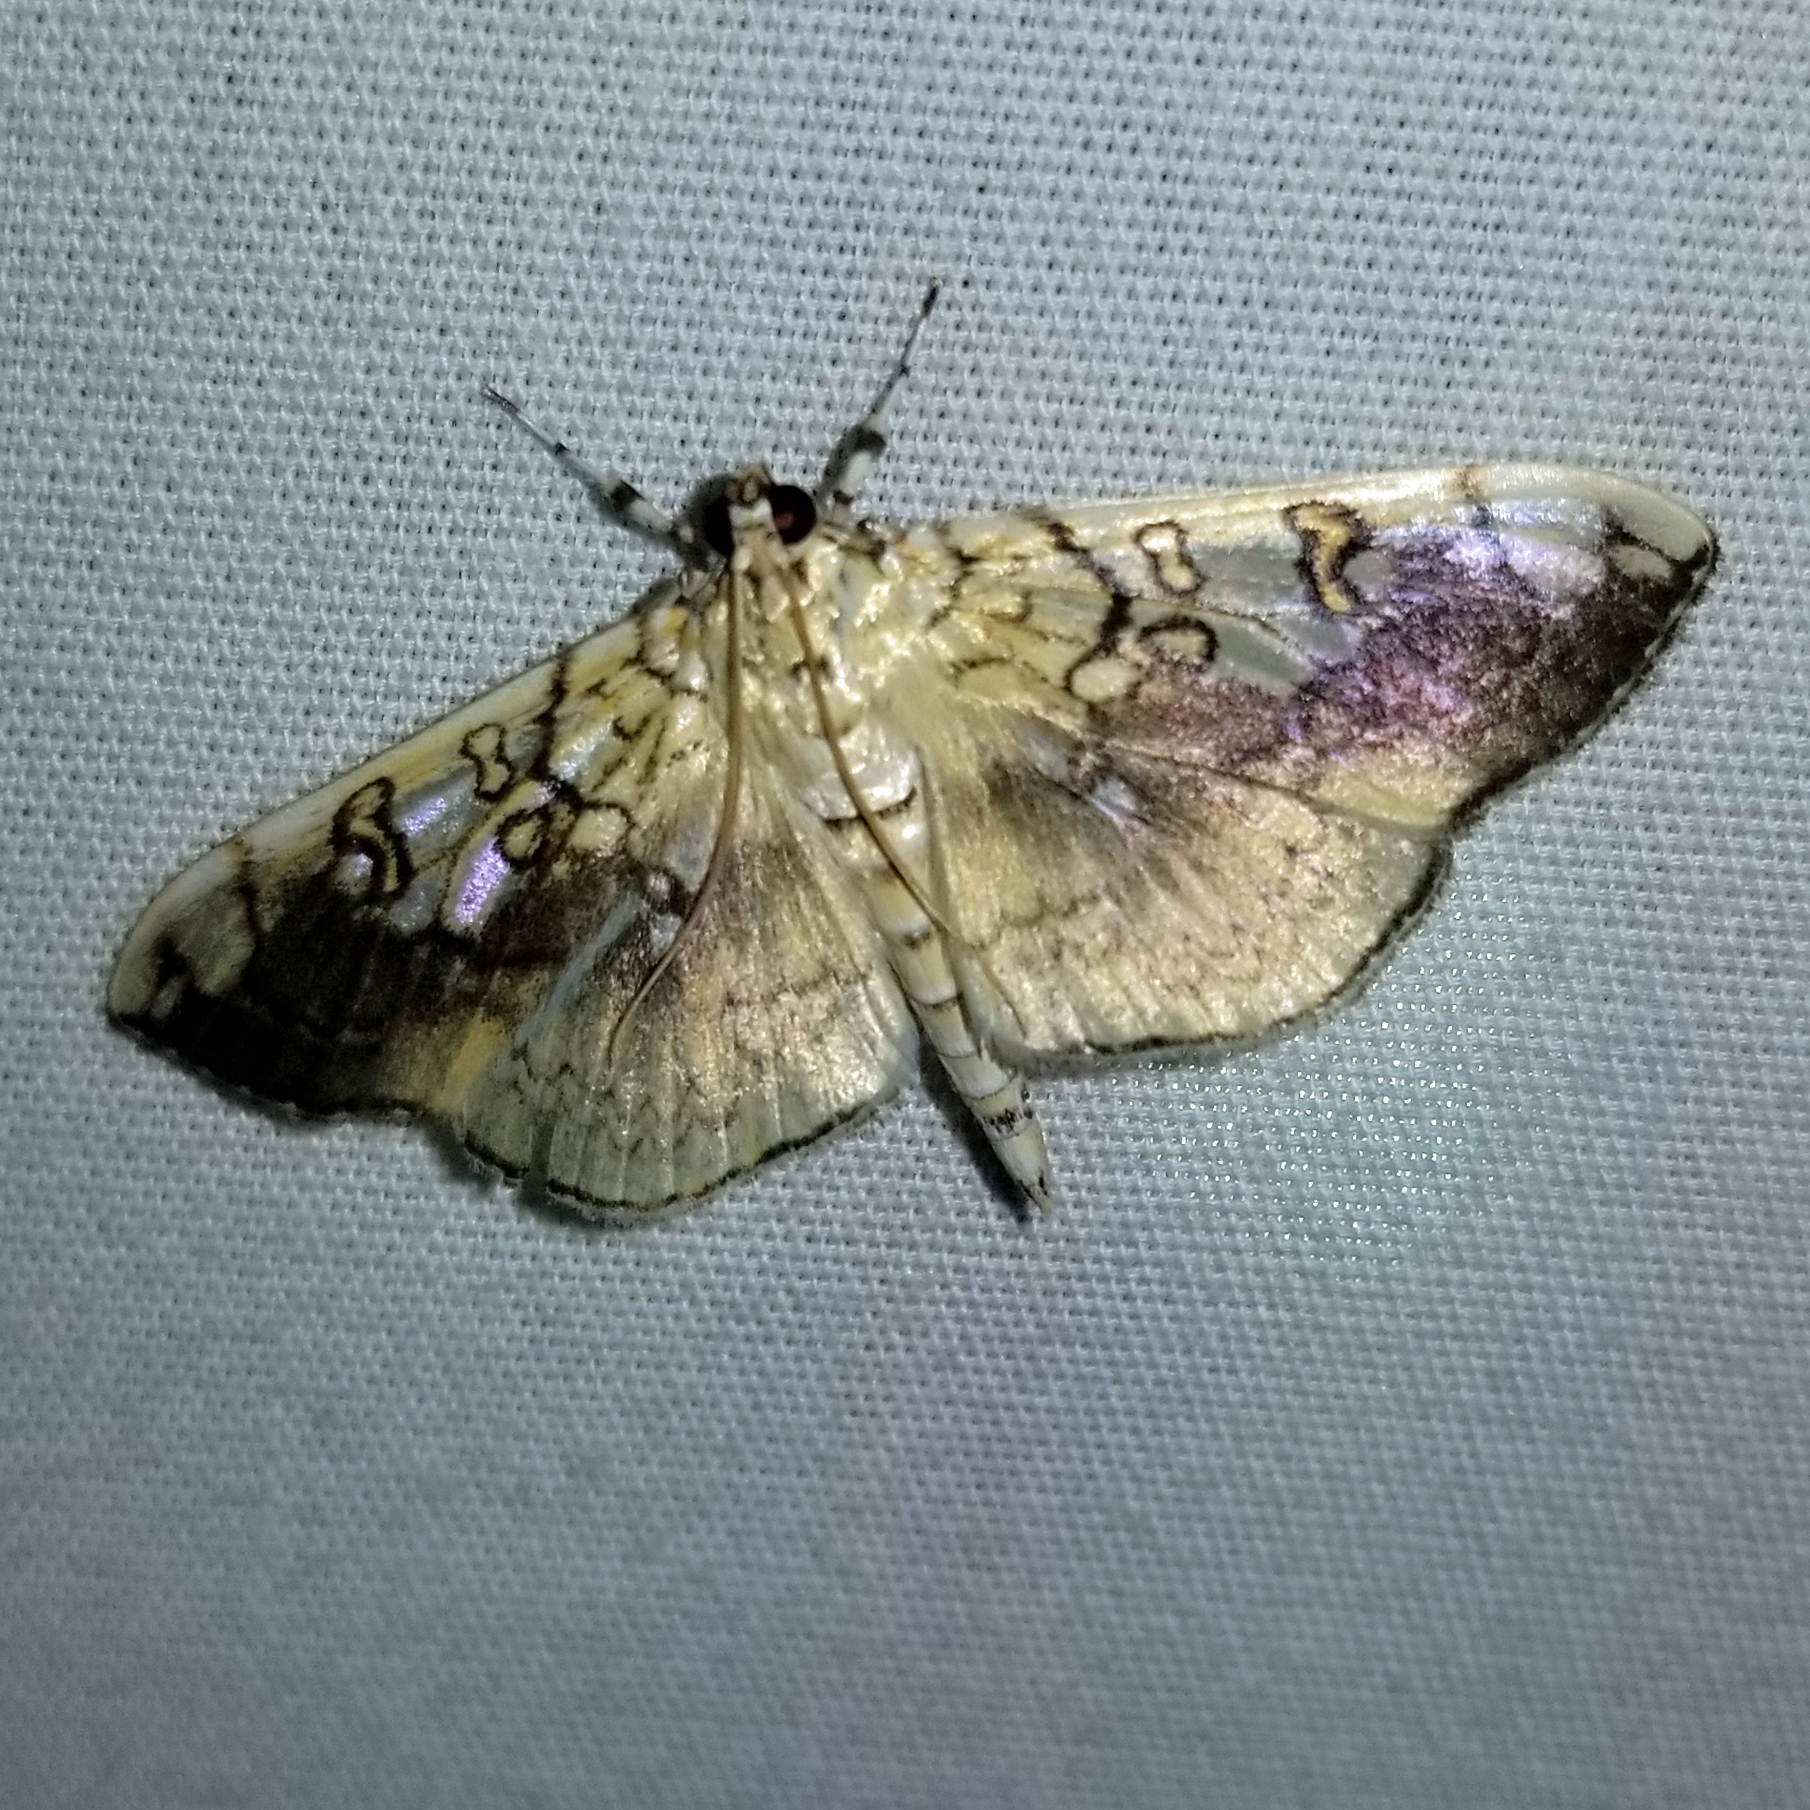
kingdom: Animalia
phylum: Arthropoda
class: Insecta
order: Lepidoptera
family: Crambidae
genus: Pantographa
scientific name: Pantographa limata
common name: Basswood leafroller moth
